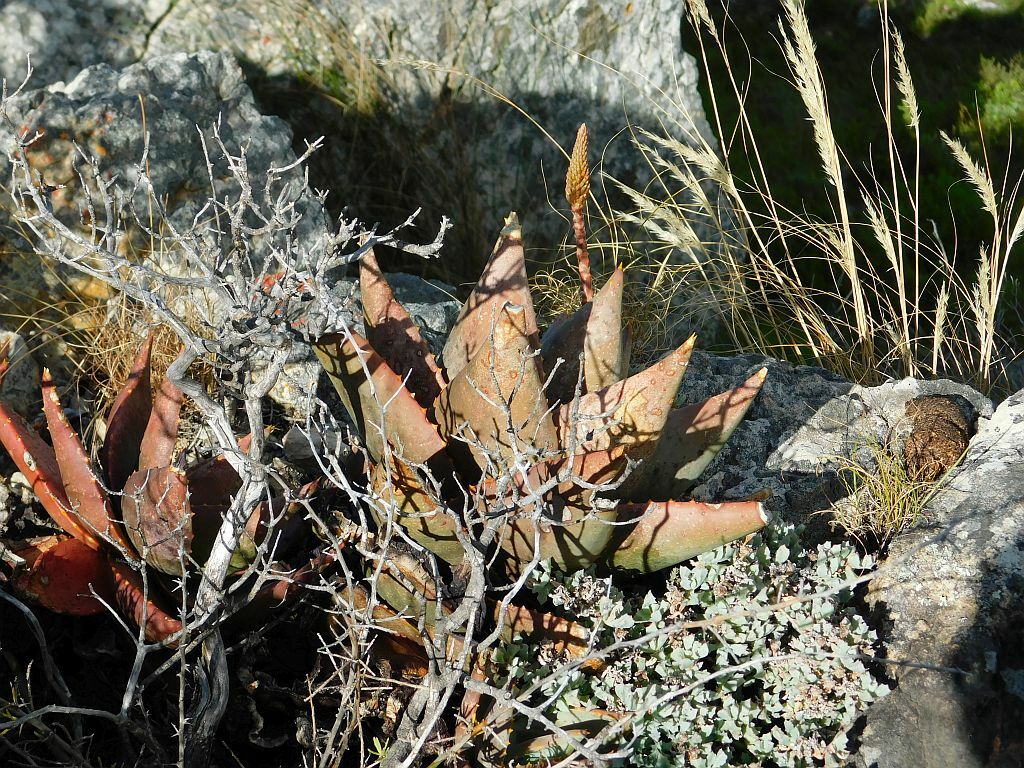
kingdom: Plantae
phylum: Tracheophyta
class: Liliopsida
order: Asparagales
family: Asphodelaceae
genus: Aloe
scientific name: Aloe perfoliata
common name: Mitra aloe
